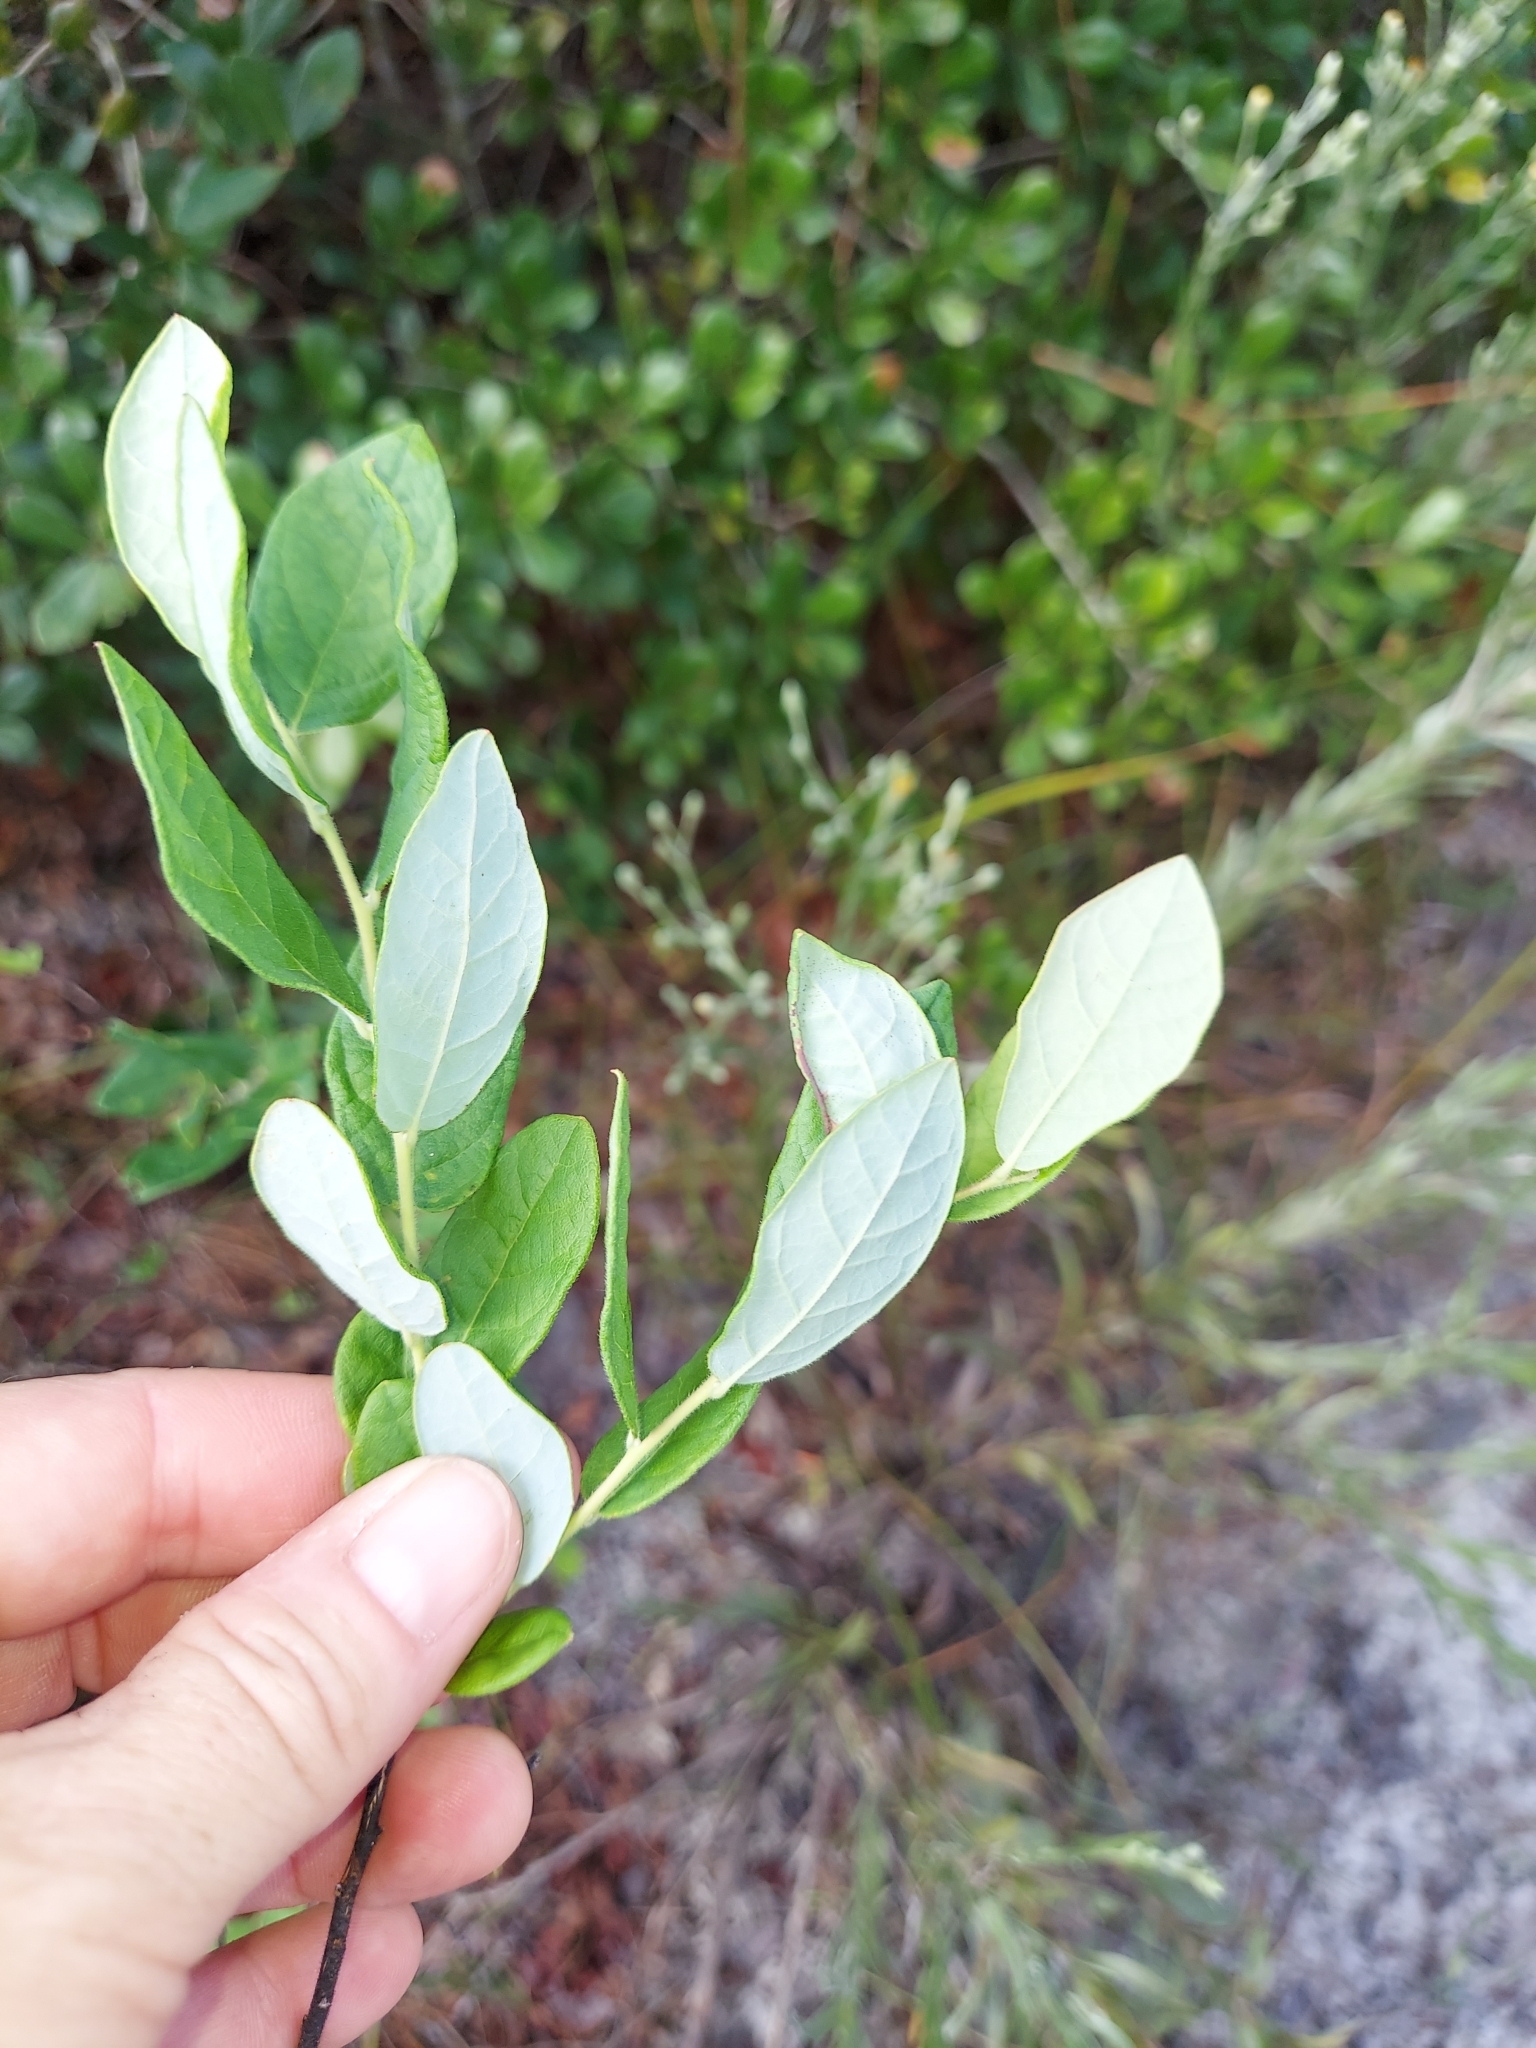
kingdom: Plantae
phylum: Tracheophyta
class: Magnoliopsida
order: Ericales
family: Ericaceae
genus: Vaccinium
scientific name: Vaccinium stamineum
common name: Deerberry
